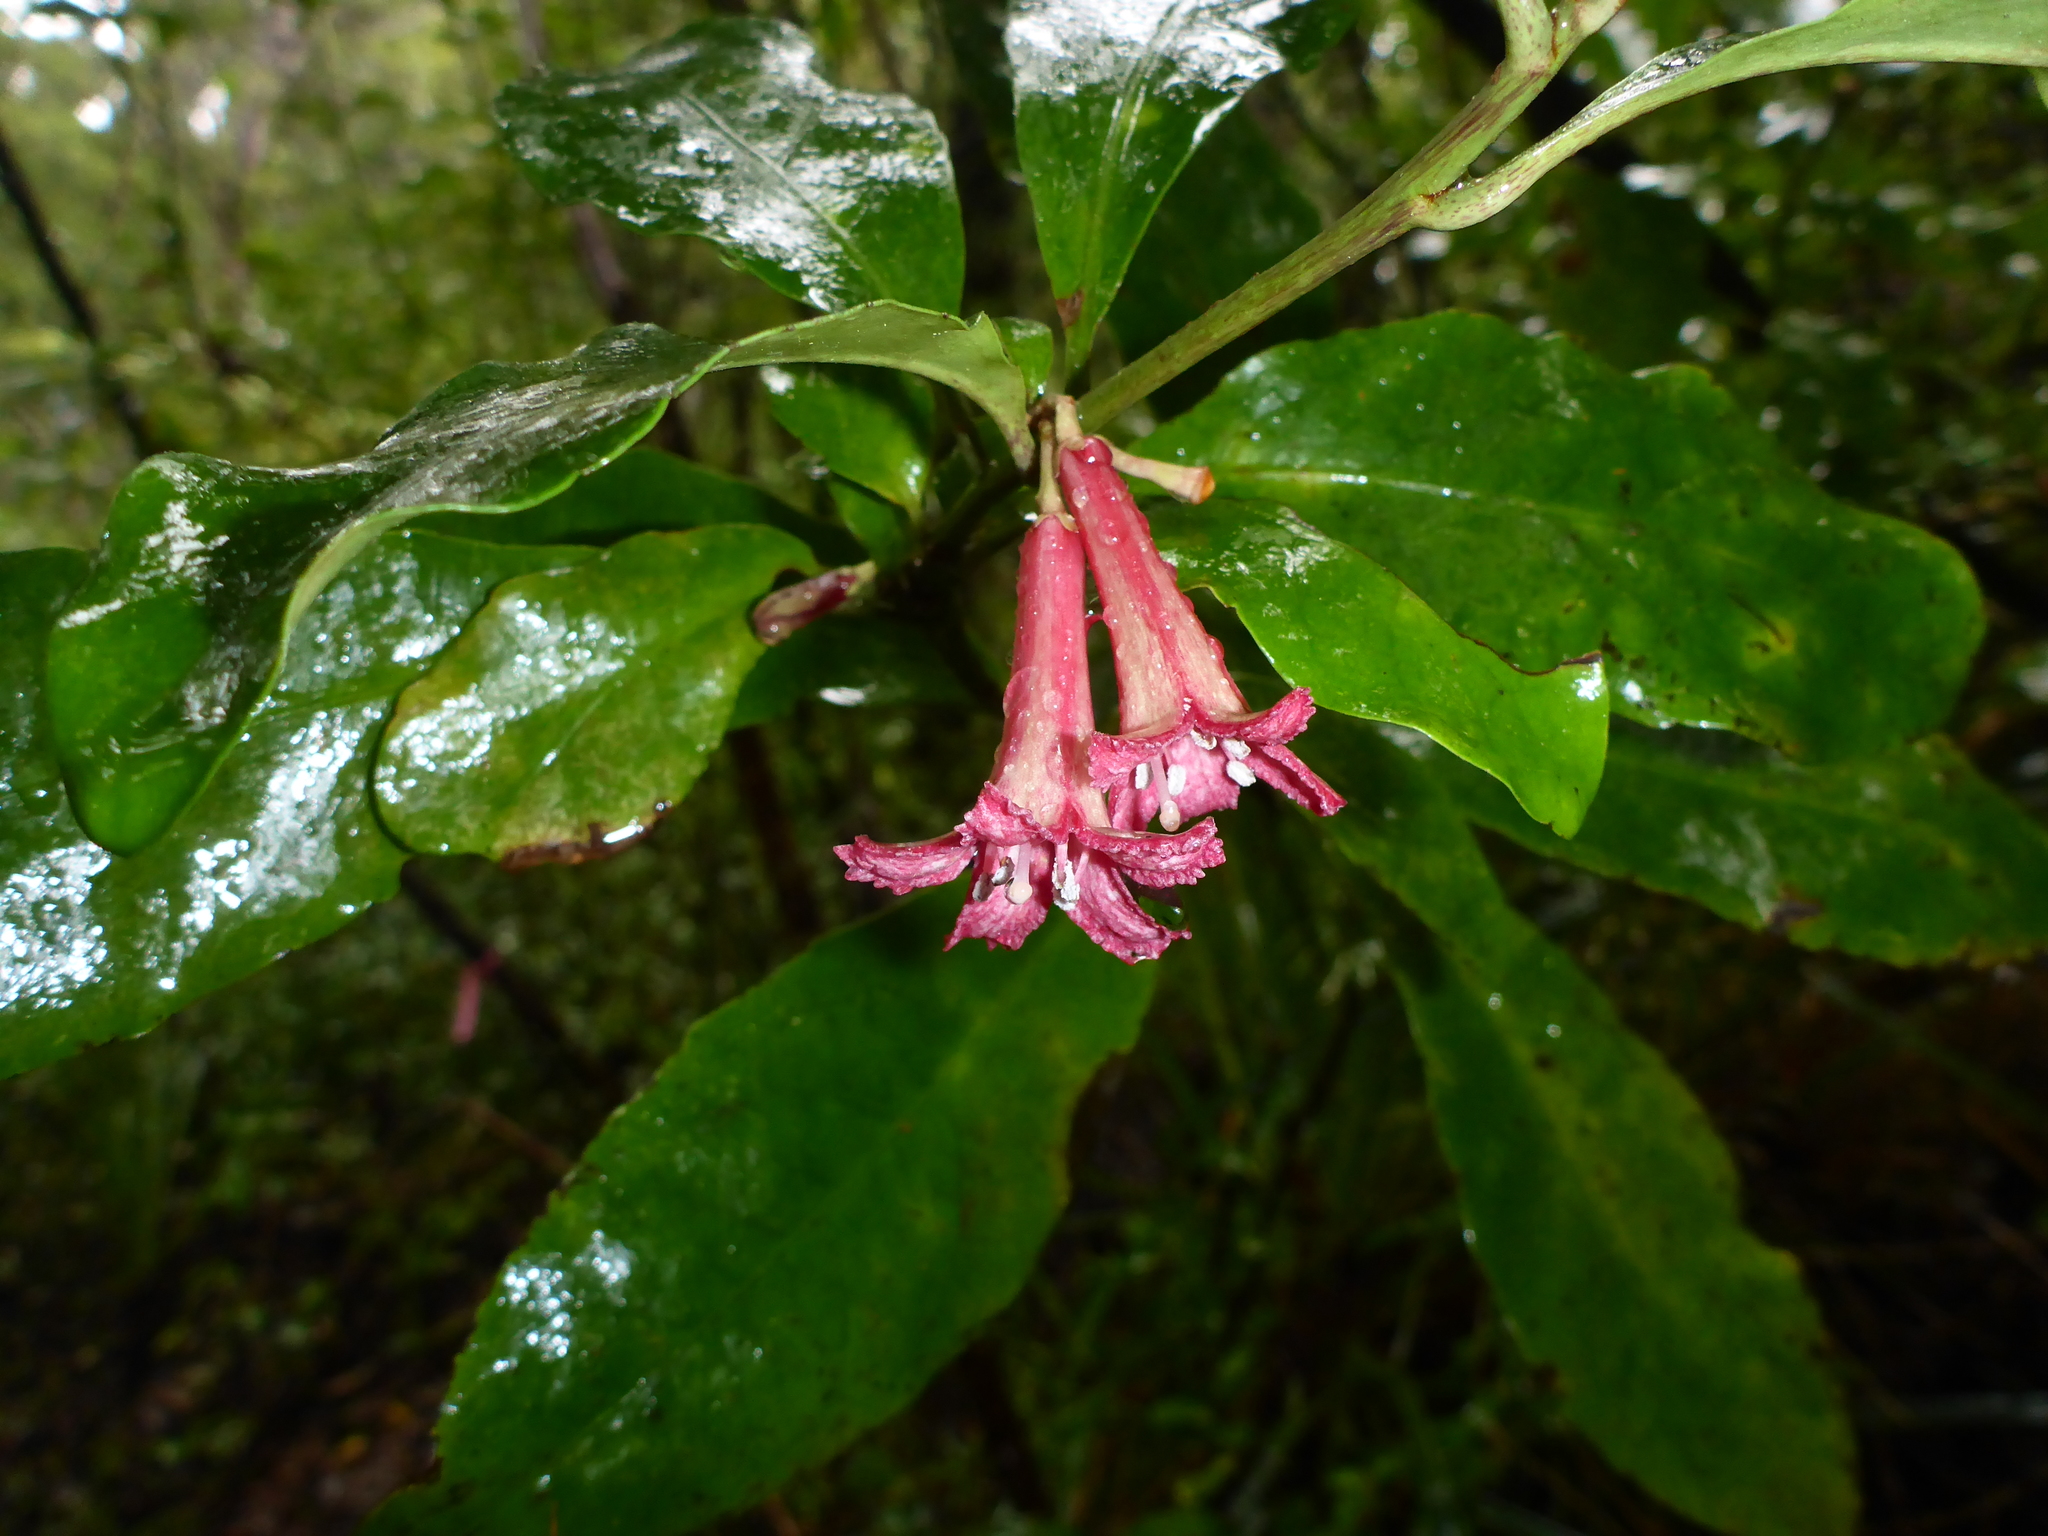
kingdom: Plantae
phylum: Tracheophyta
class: Magnoliopsida
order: Asterales
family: Alseuosmiaceae
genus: Alseuosmia
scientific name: Alseuosmia macrophylla
